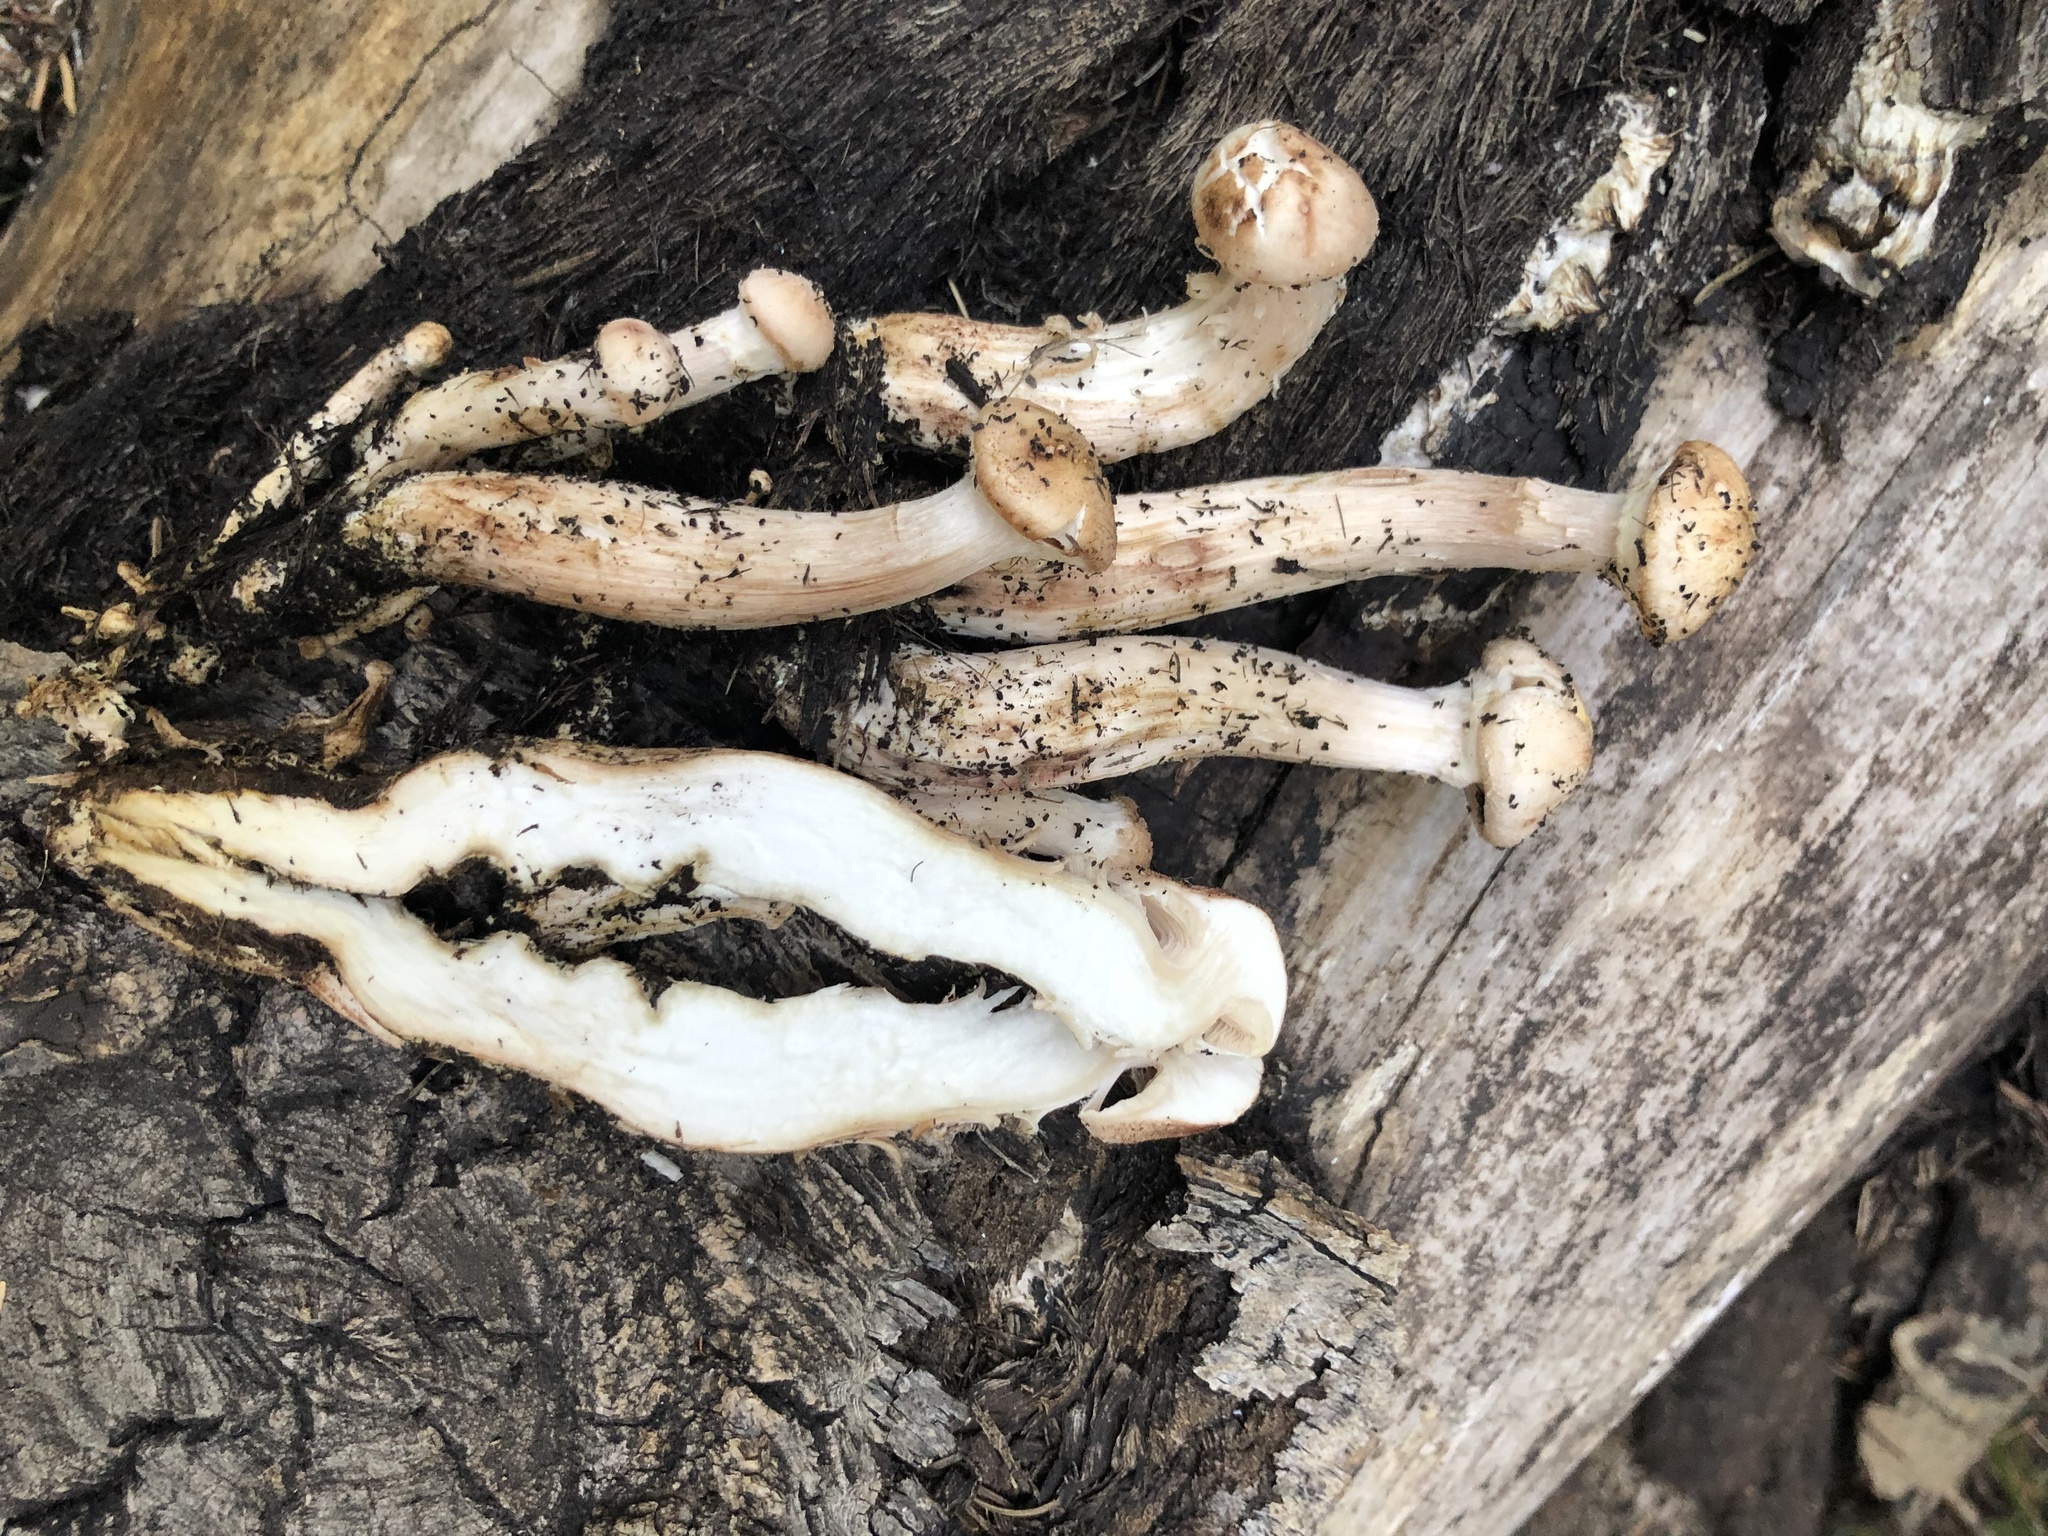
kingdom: Fungi
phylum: Basidiomycota
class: Agaricomycetes
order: Agaricales
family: Physalacriaceae
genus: Armillaria
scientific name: Armillaria mellea
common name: Honey fungus
